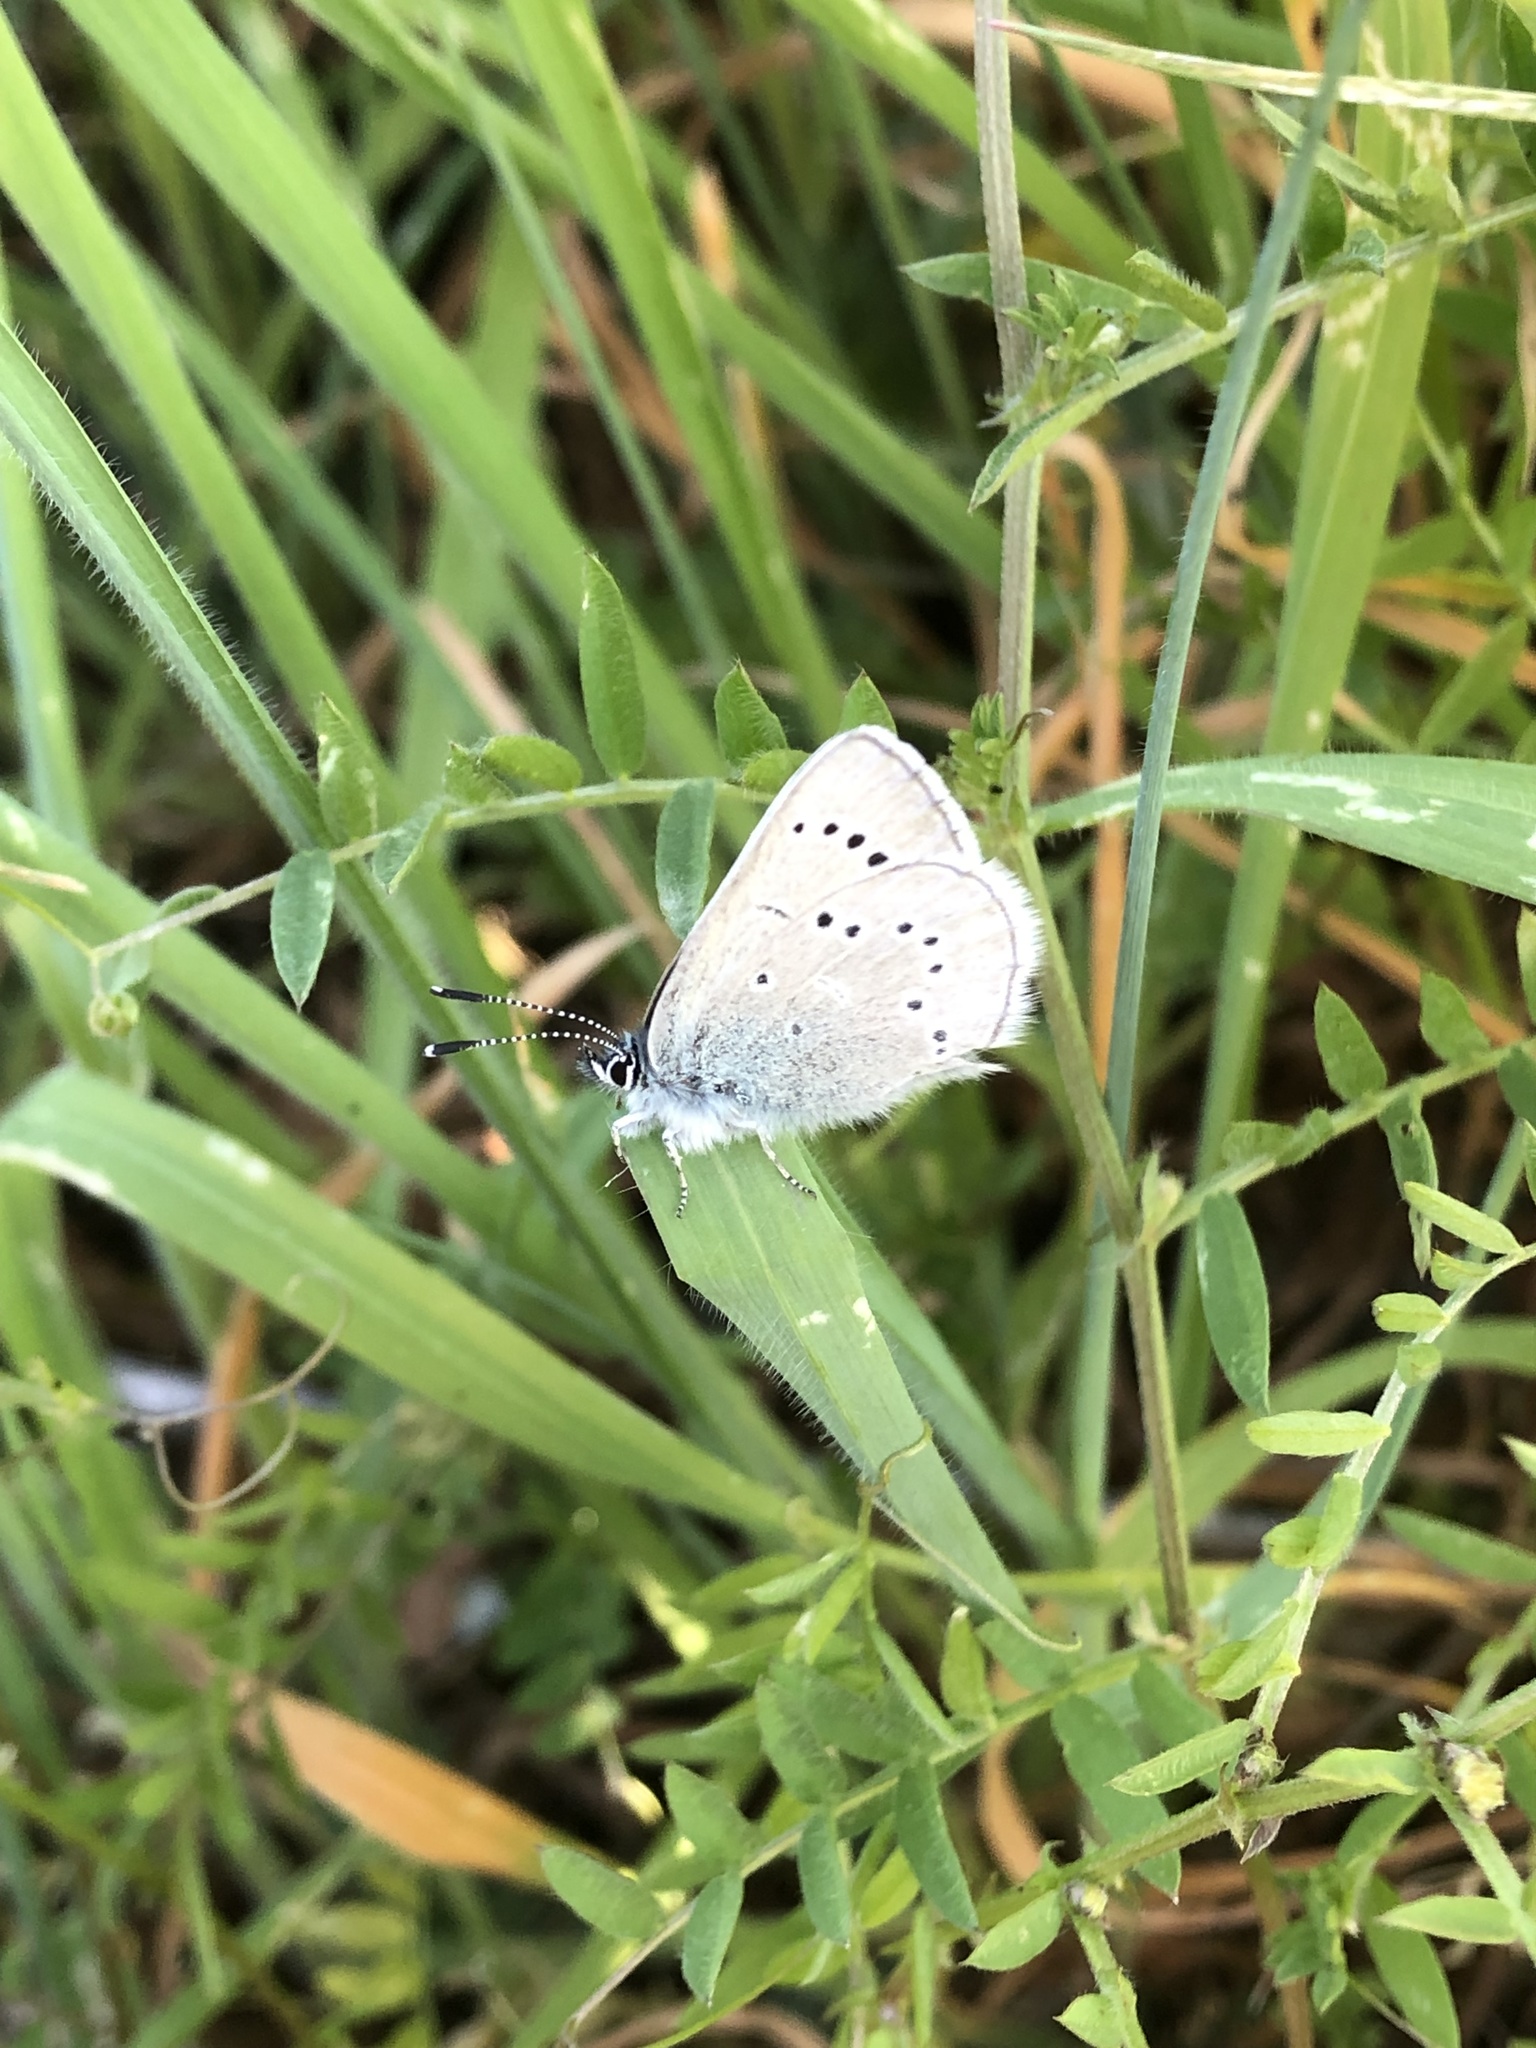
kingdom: Animalia
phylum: Arthropoda
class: Insecta
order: Lepidoptera
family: Lycaenidae
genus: Glaucopsyche
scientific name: Glaucopsyche lygdamus
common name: Silvery blue
